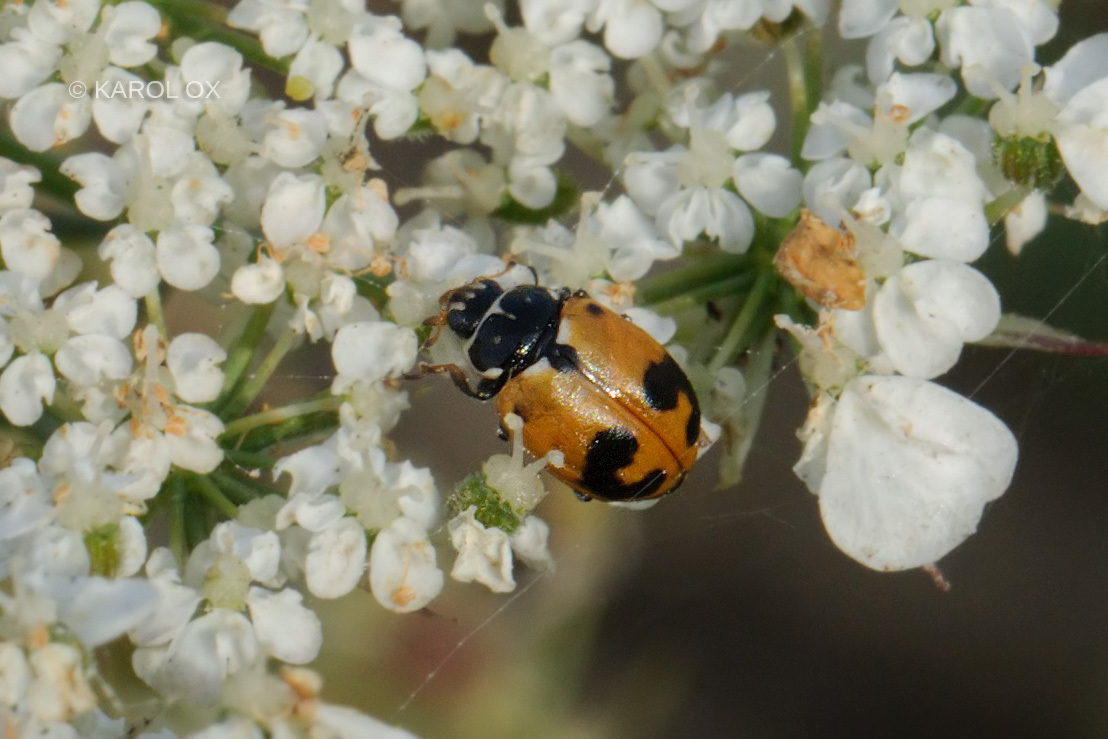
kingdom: Animalia
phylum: Arthropoda
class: Insecta
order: Coleoptera
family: Coccinellidae
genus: Hippodamia
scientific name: Hippodamia variegata
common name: Ladybird beetle
